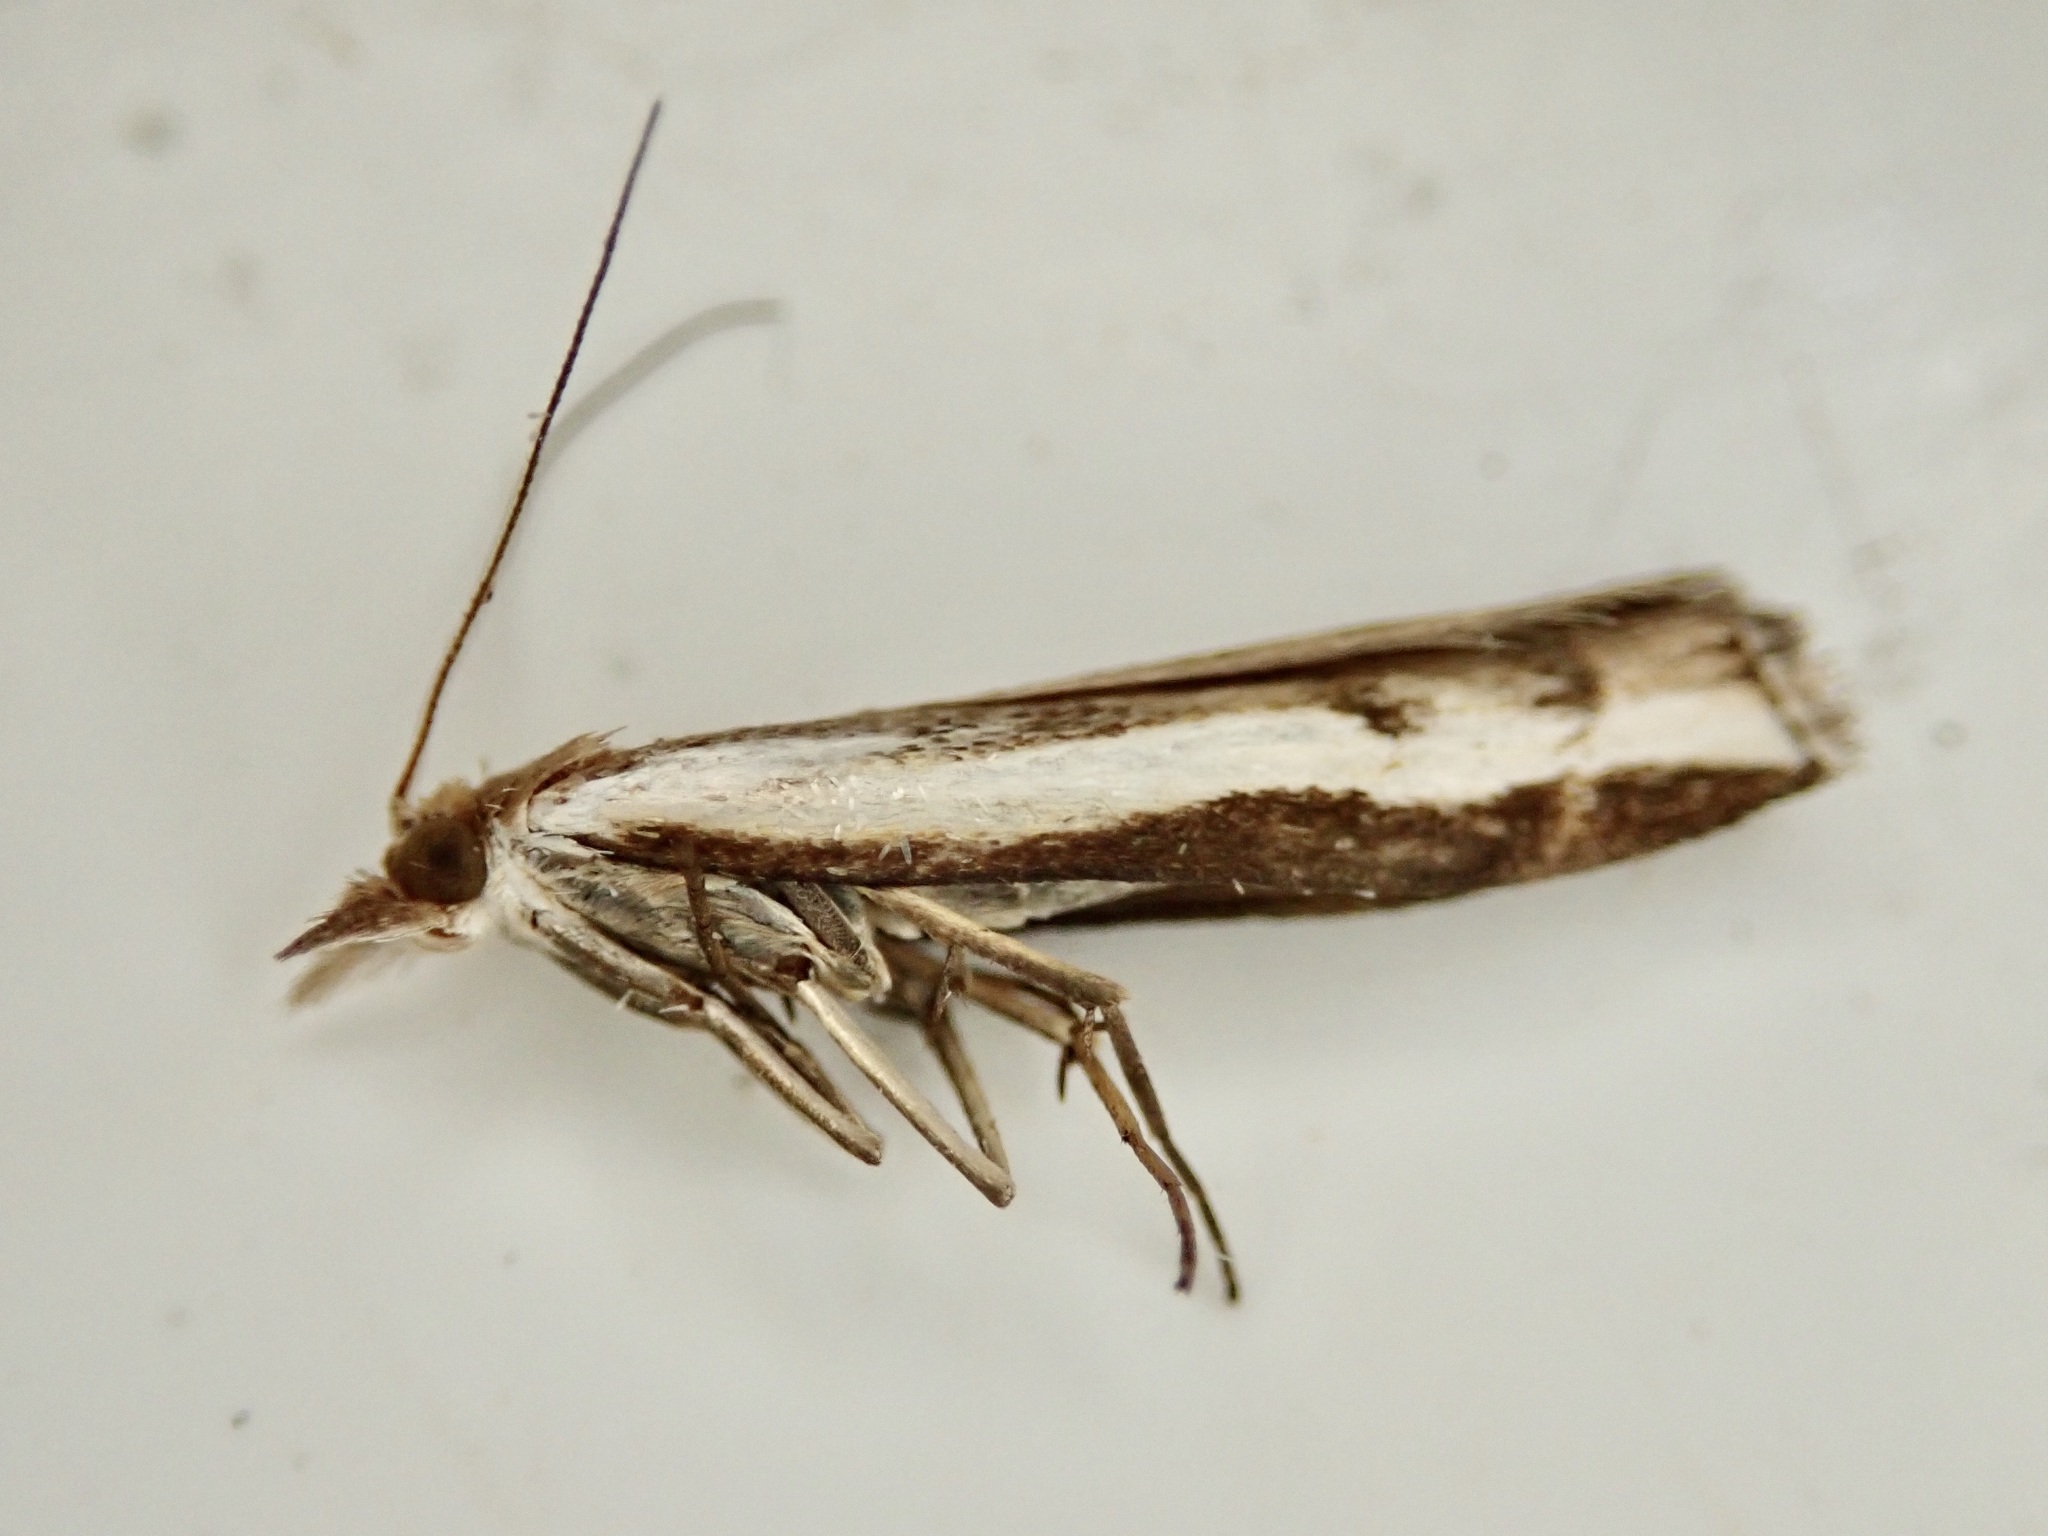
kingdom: Animalia
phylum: Arthropoda
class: Insecta
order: Lepidoptera
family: Crambidae
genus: Orocrambus
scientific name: Orocrambus flexuosellus
